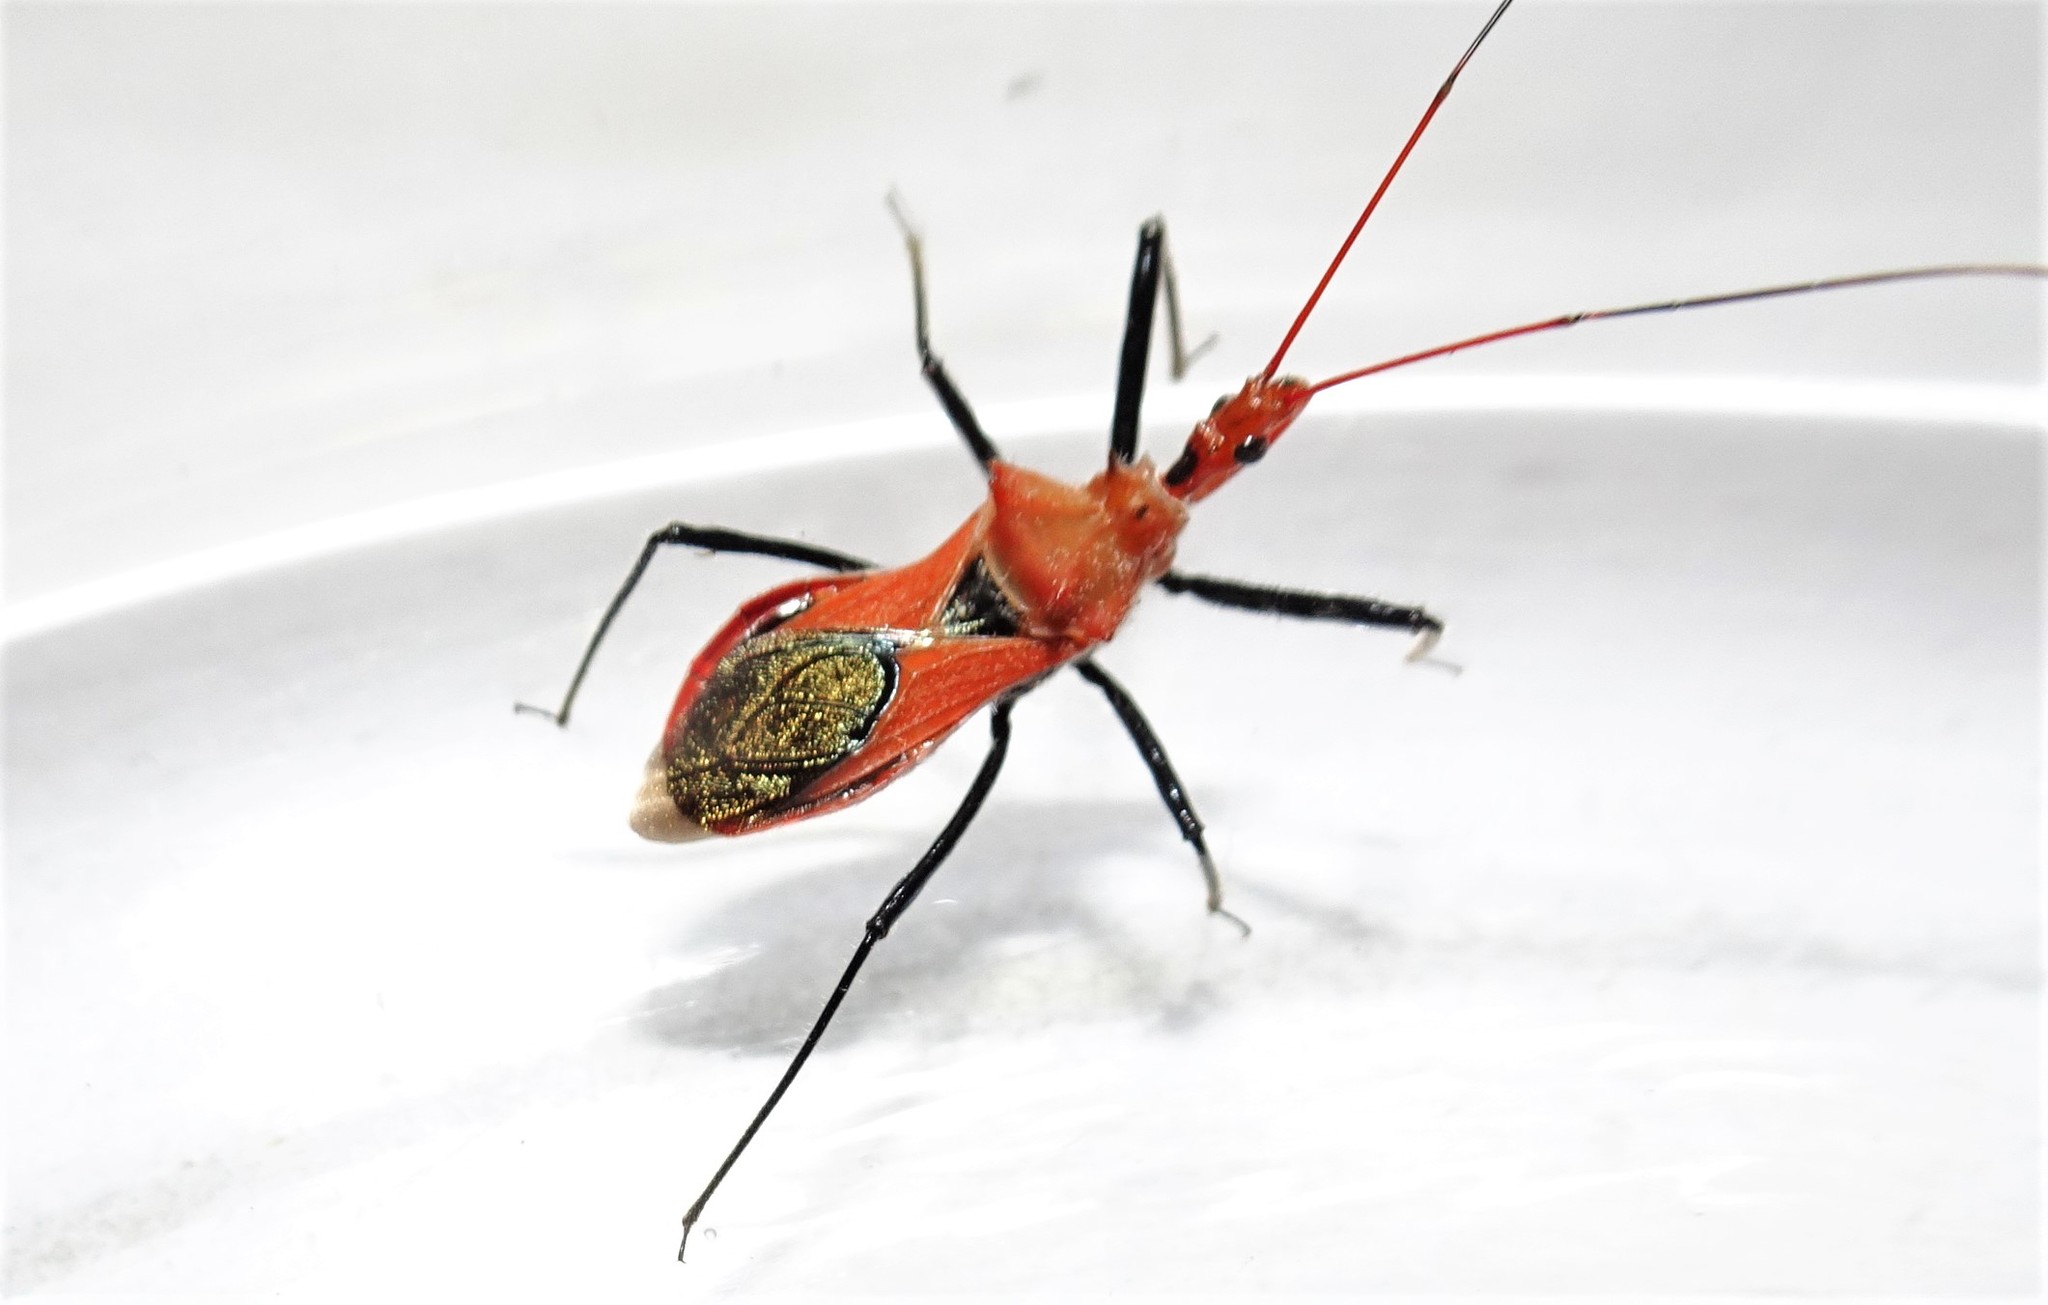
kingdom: Animalia
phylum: Arthropoda
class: Insecta
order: Hemiptera
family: Reduviidae
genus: Gminatus
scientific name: Gminatus wallengreni
